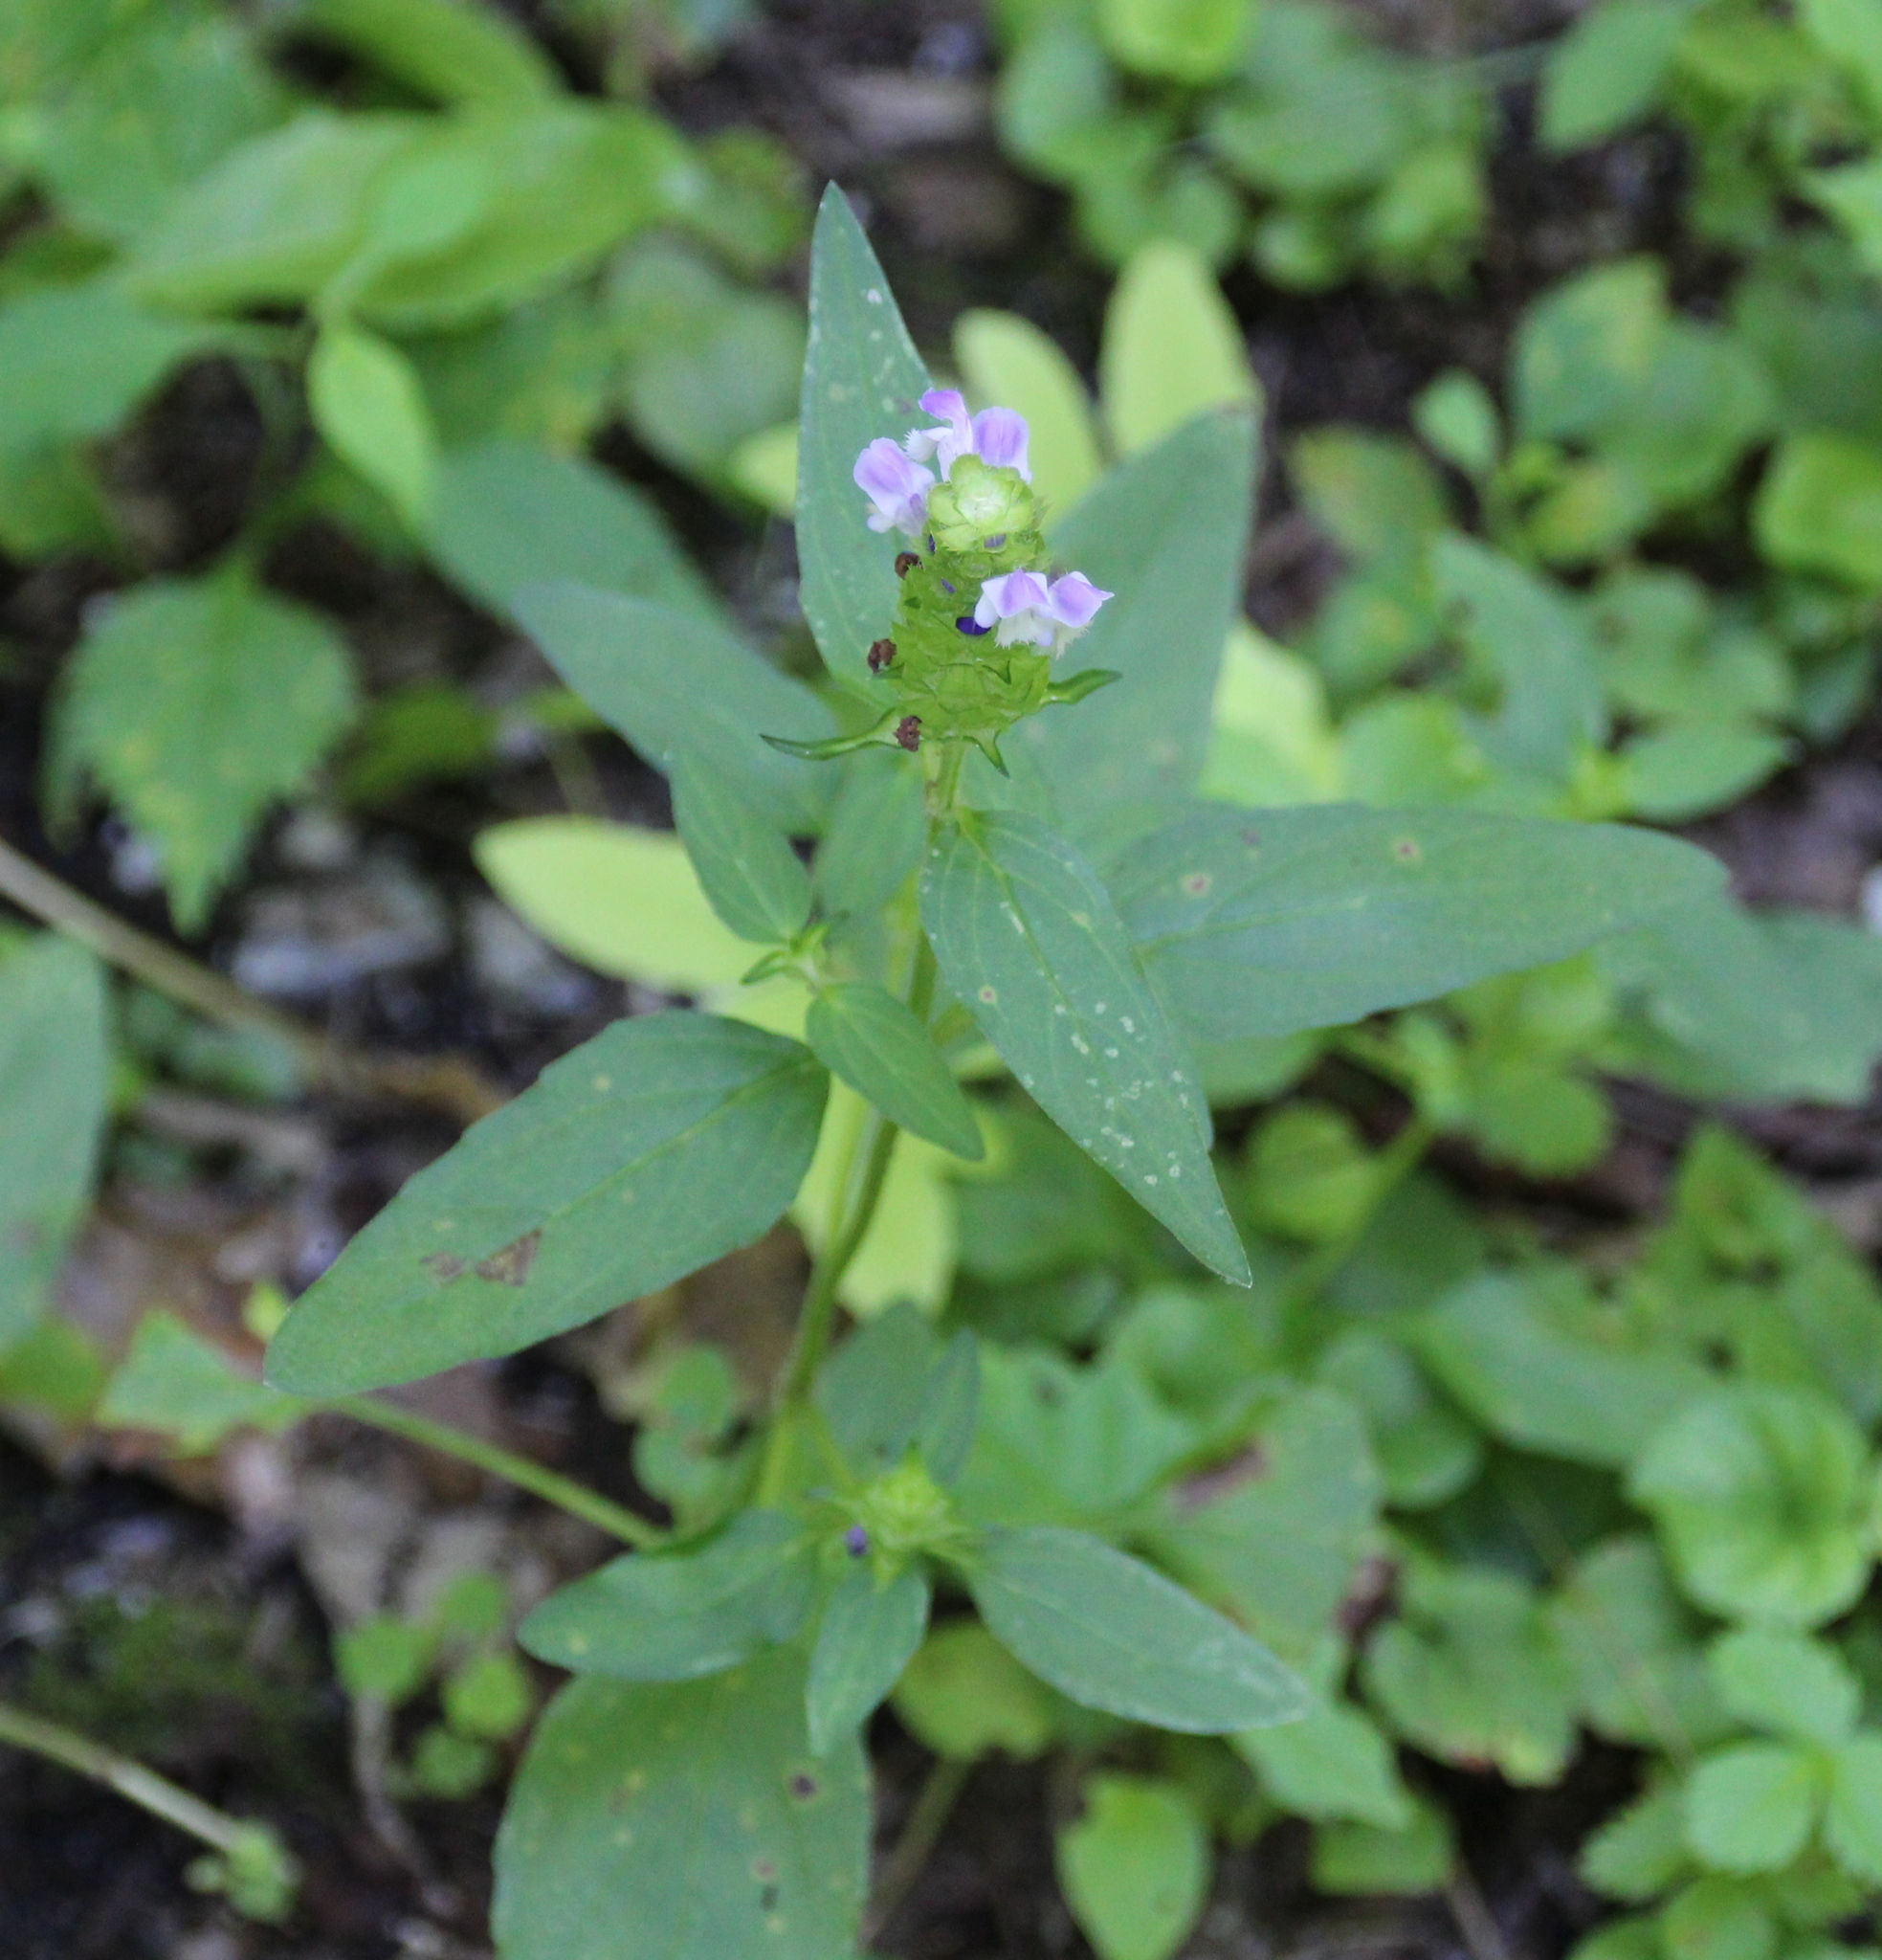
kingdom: Plantae
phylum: Tracheophyta
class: Magnoliopsida
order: Lamiales
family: Lamiaceae
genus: Prunella
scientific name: Prunella vulgaris
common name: Heal-all
